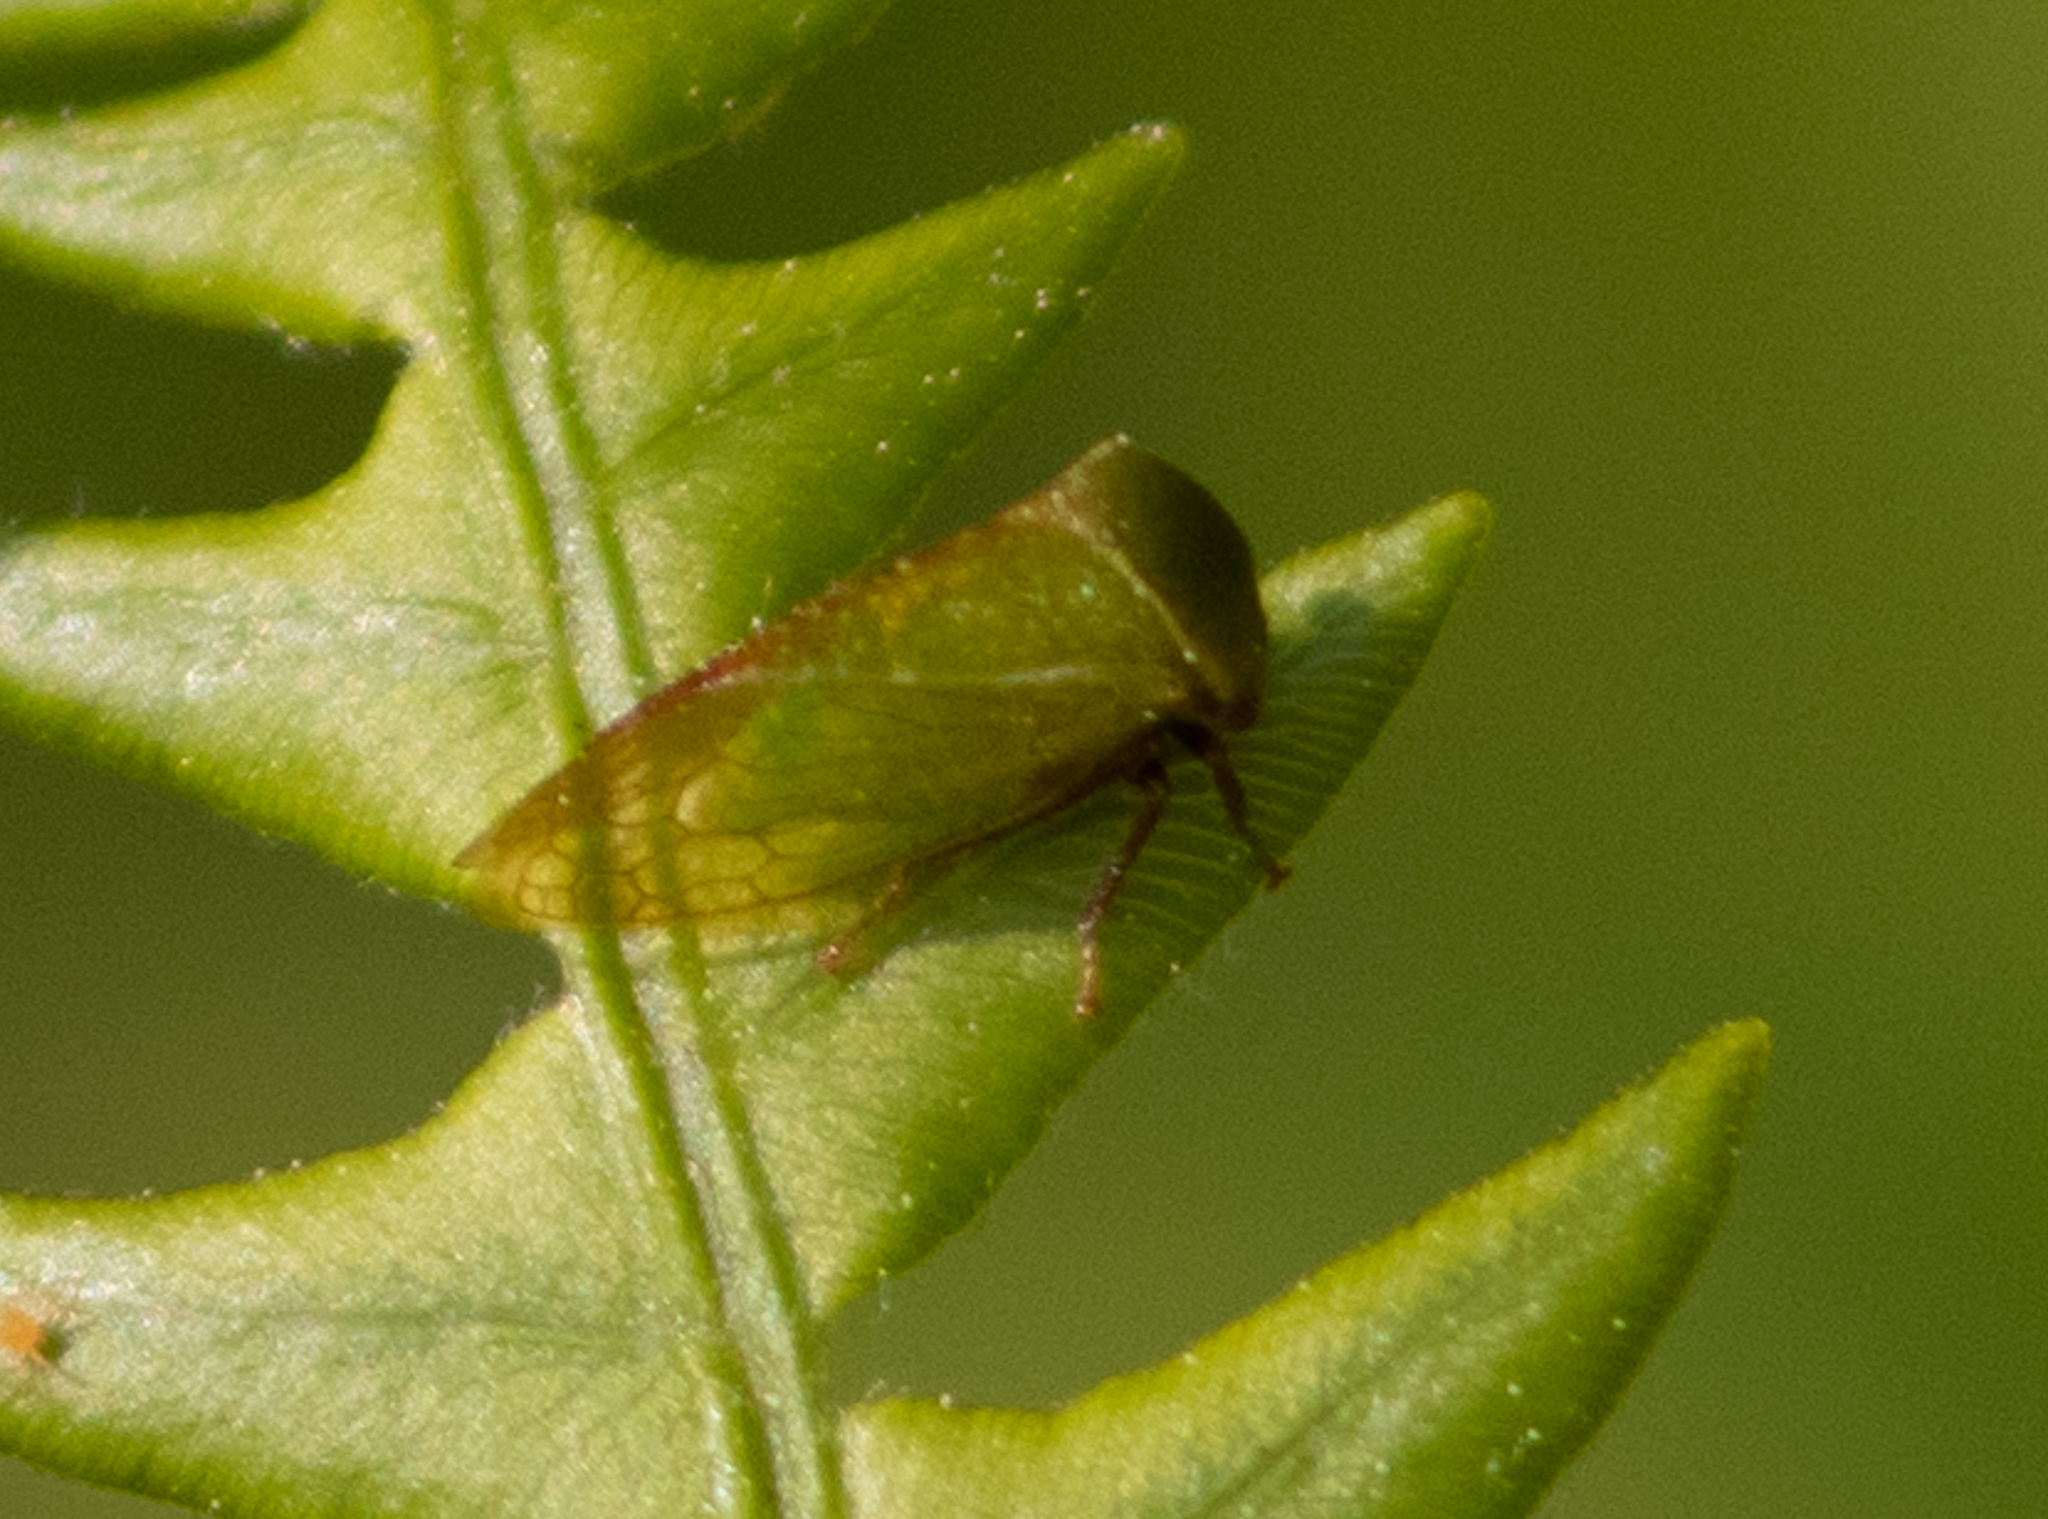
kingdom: Animalia
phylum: Arthropoda
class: Insecta
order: Hemiptera
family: Membracidae
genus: Stictocephala
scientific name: Stictocephala lutea
